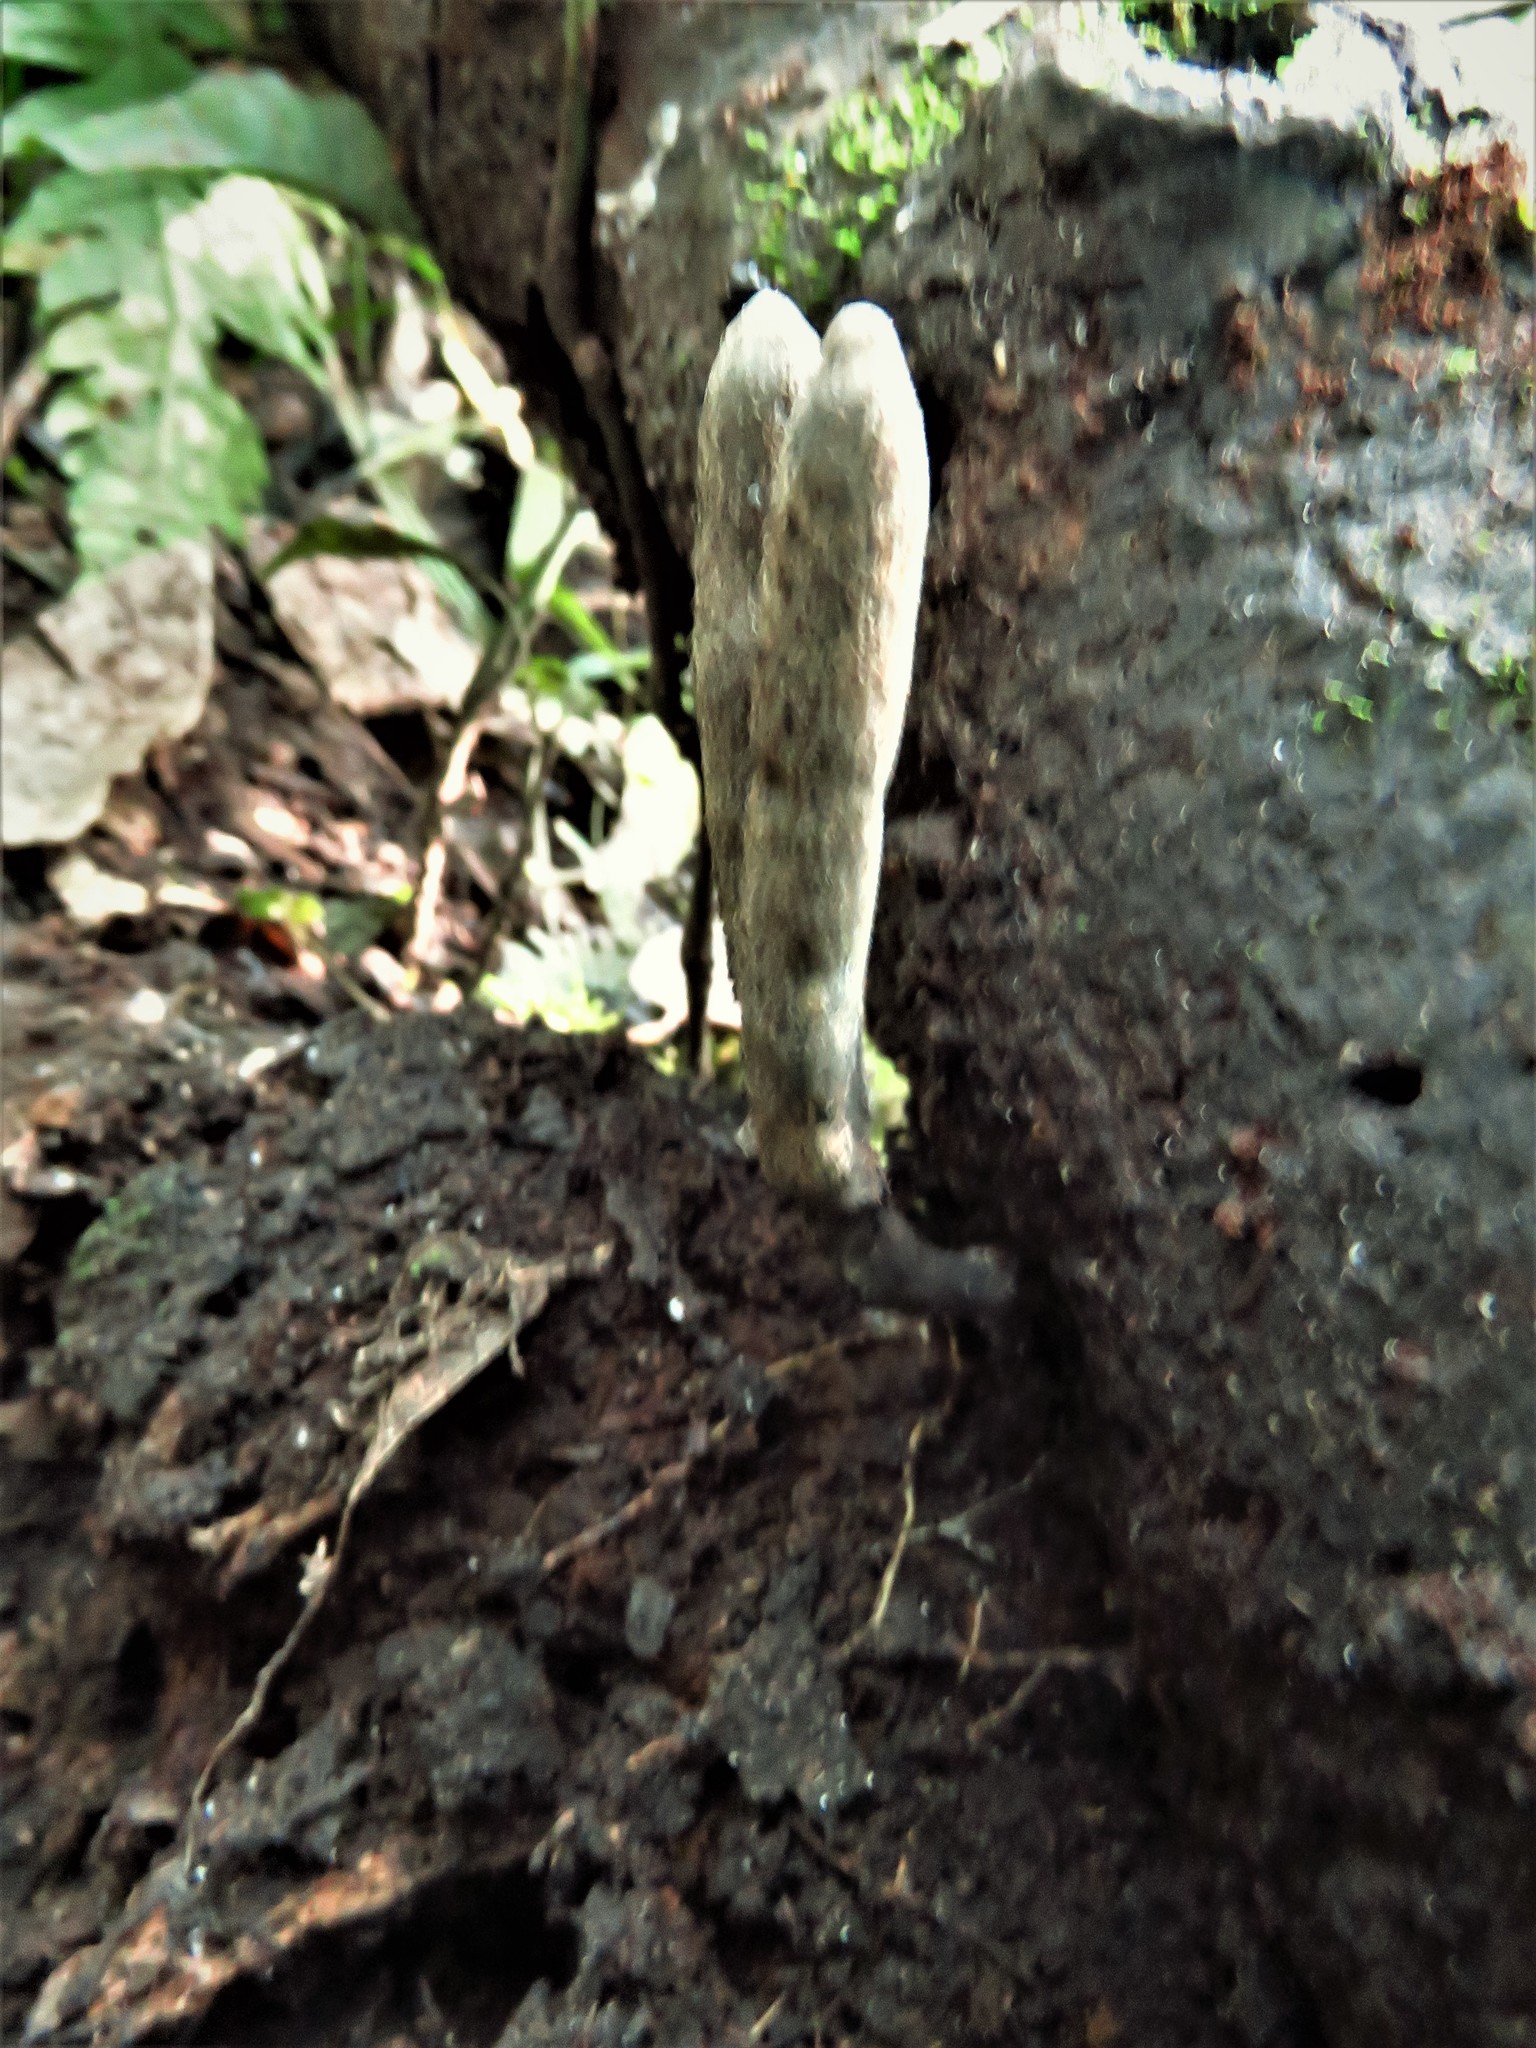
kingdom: Fungi
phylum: Ascomycota
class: Sordariomycetes
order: Xylariales
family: Xylariaceae
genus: Xylaria
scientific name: Xylaria grammica
